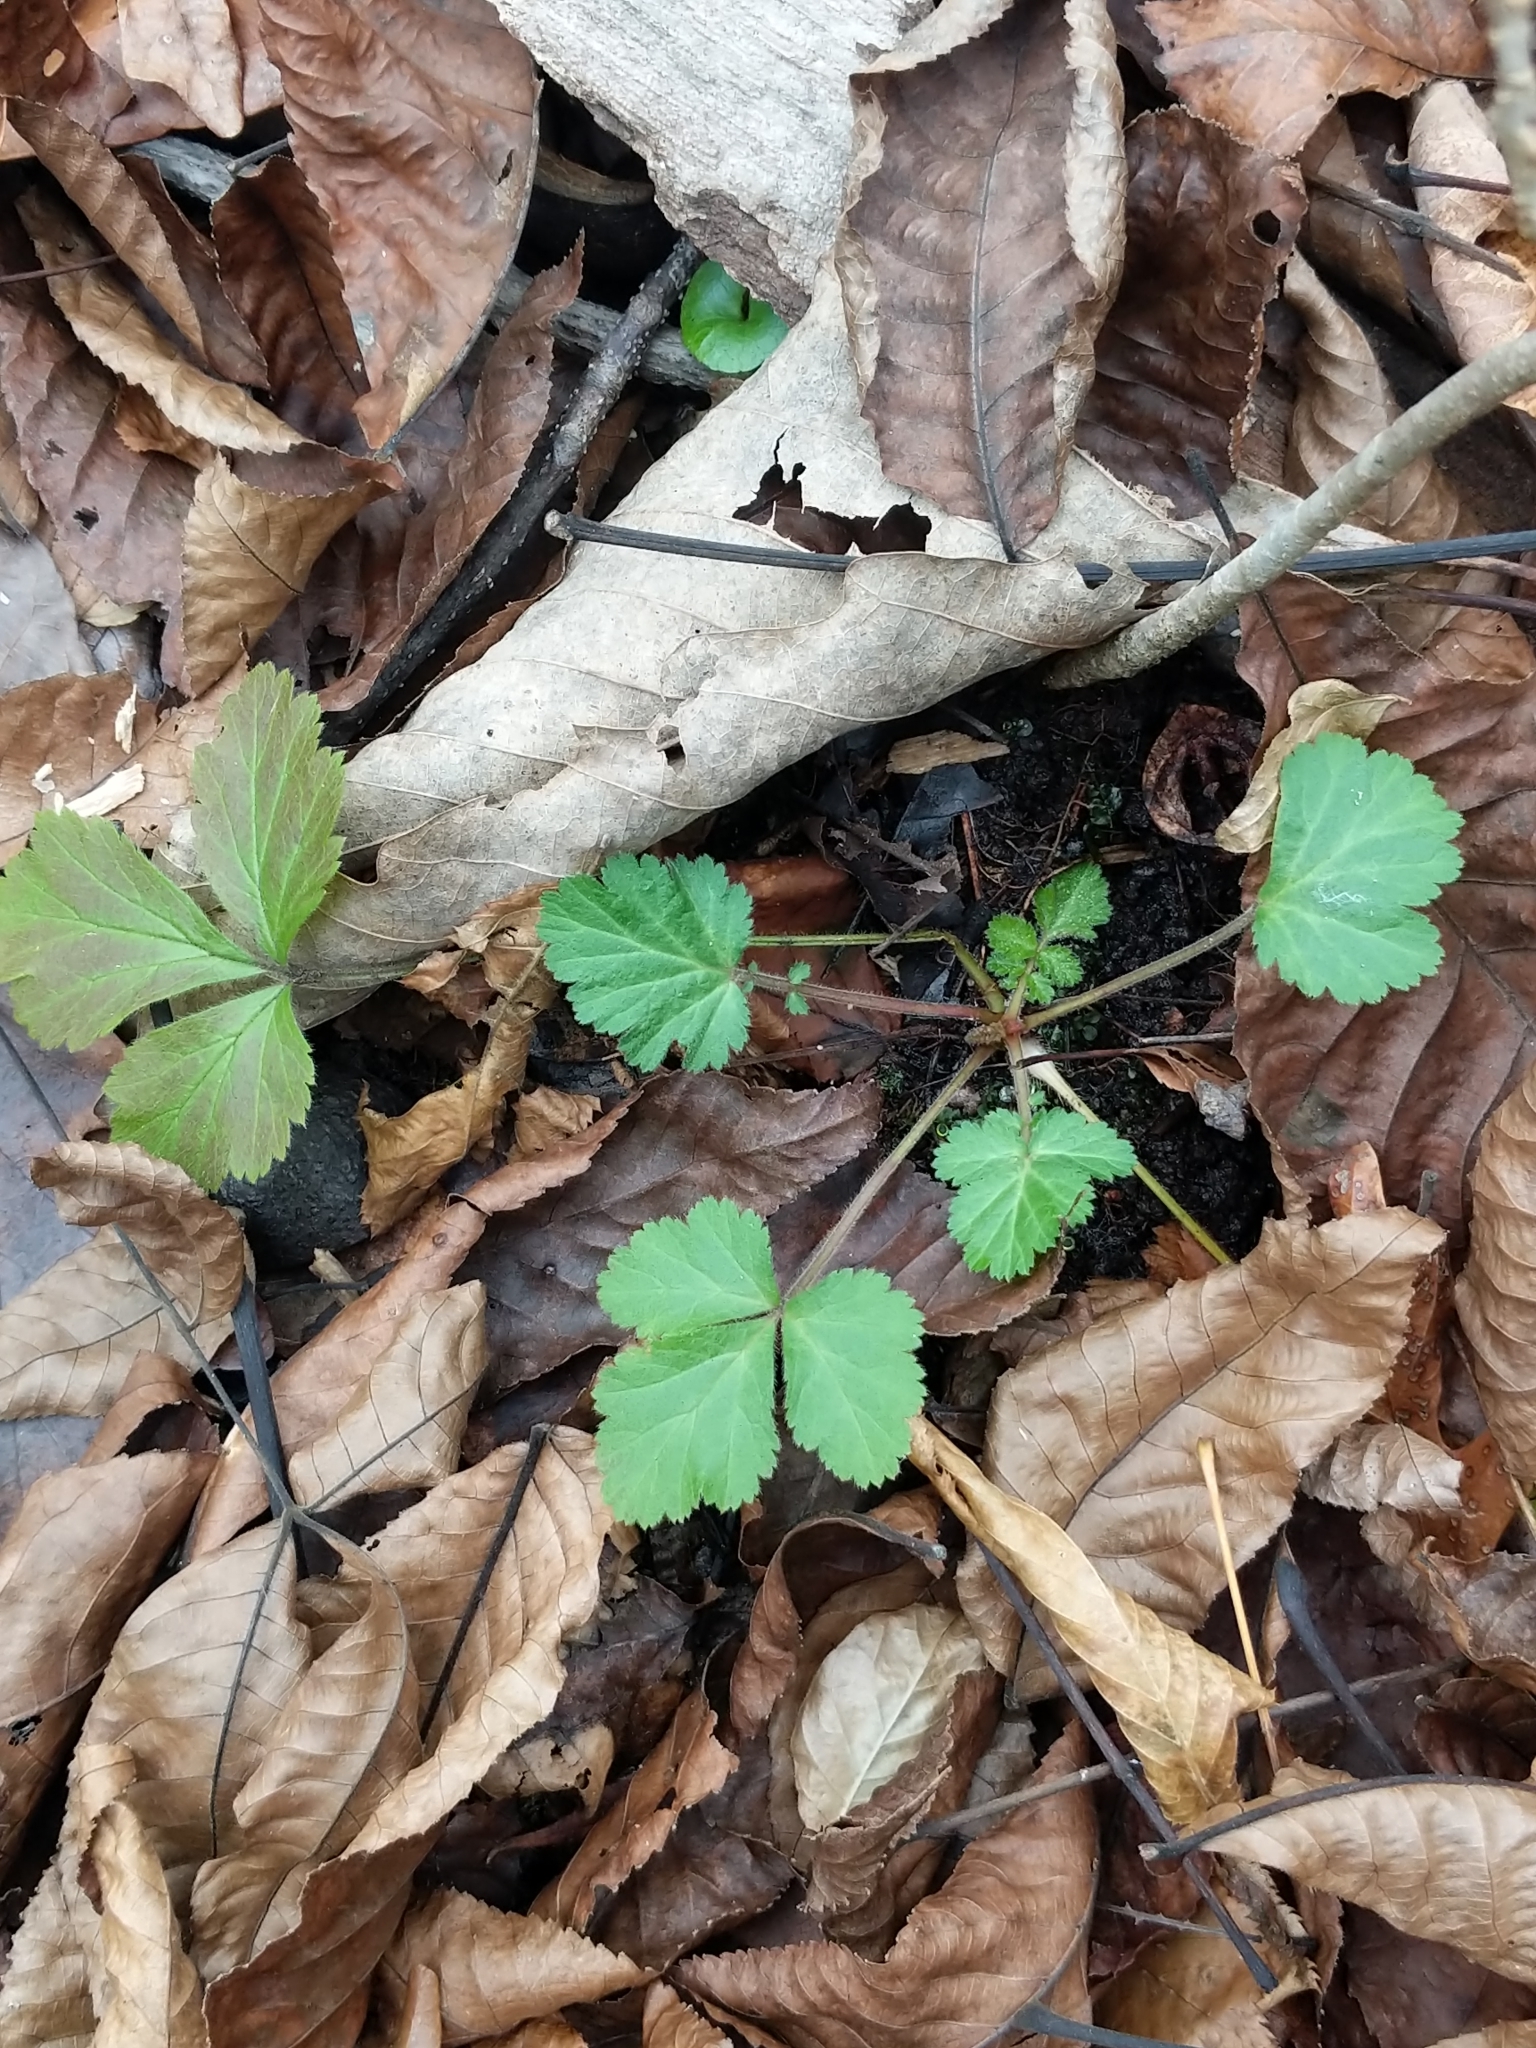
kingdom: Plantae
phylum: Tracheophyta
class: Magnoliopsida
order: Rosales
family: Rosaceae
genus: Geum
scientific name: Geum canadense
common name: White avens
